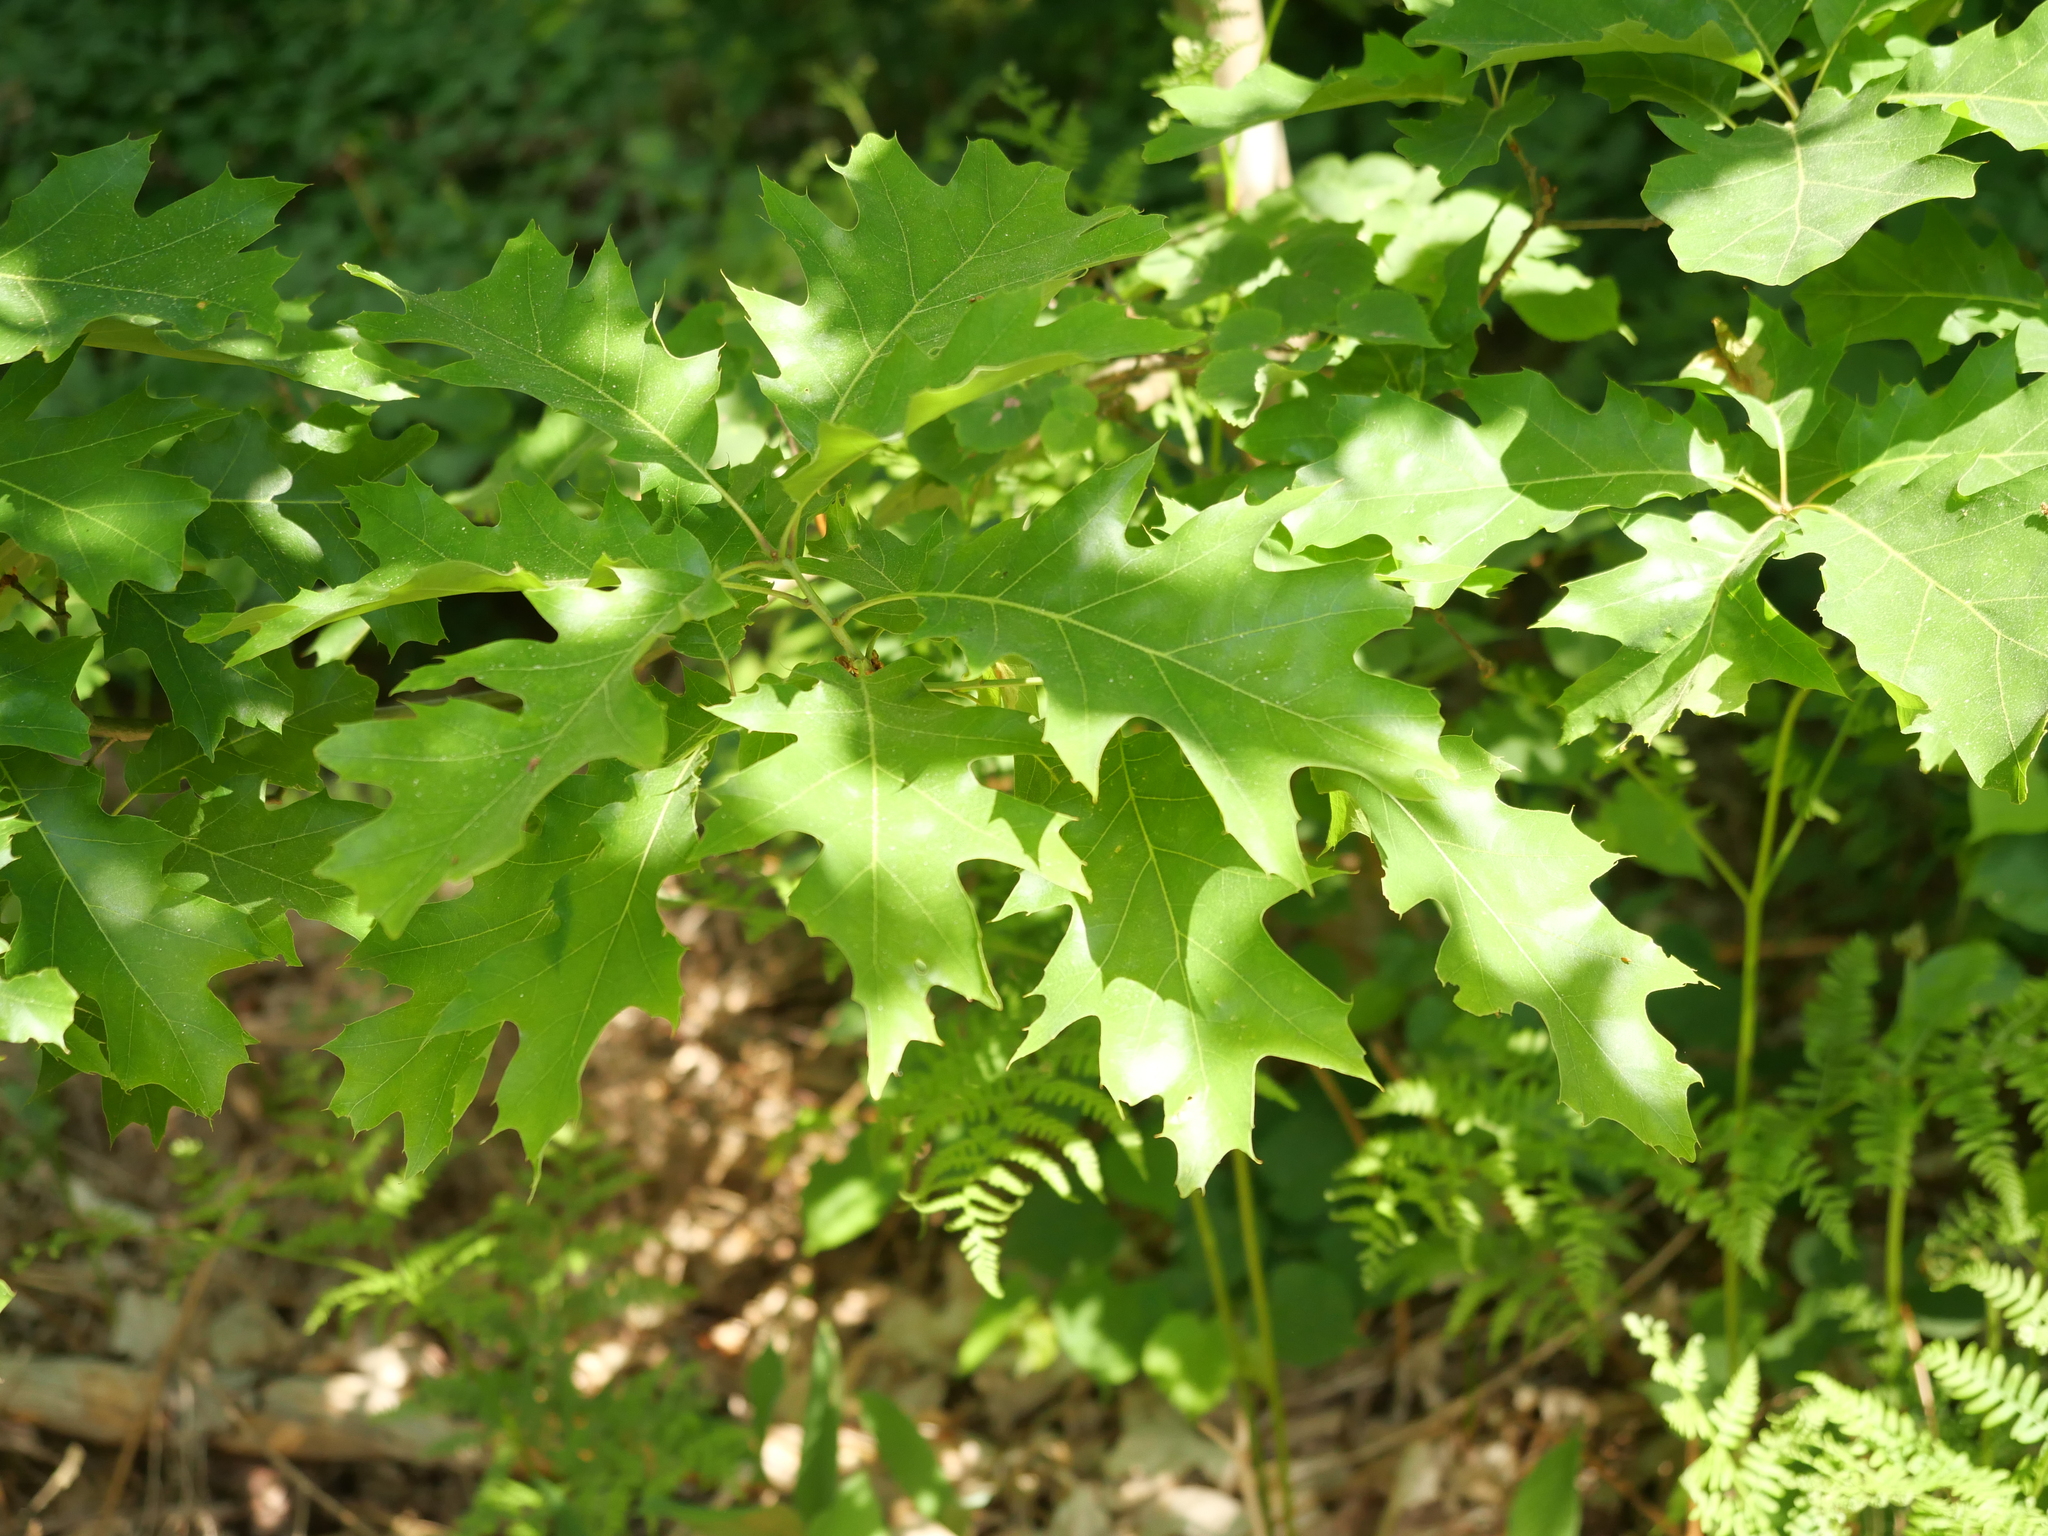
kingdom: Plantae
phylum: Tracheophyta
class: Magnoliopsida
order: Fagales
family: Fagaceae
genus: Quercus
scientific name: Quercus rubra
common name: Red oak
